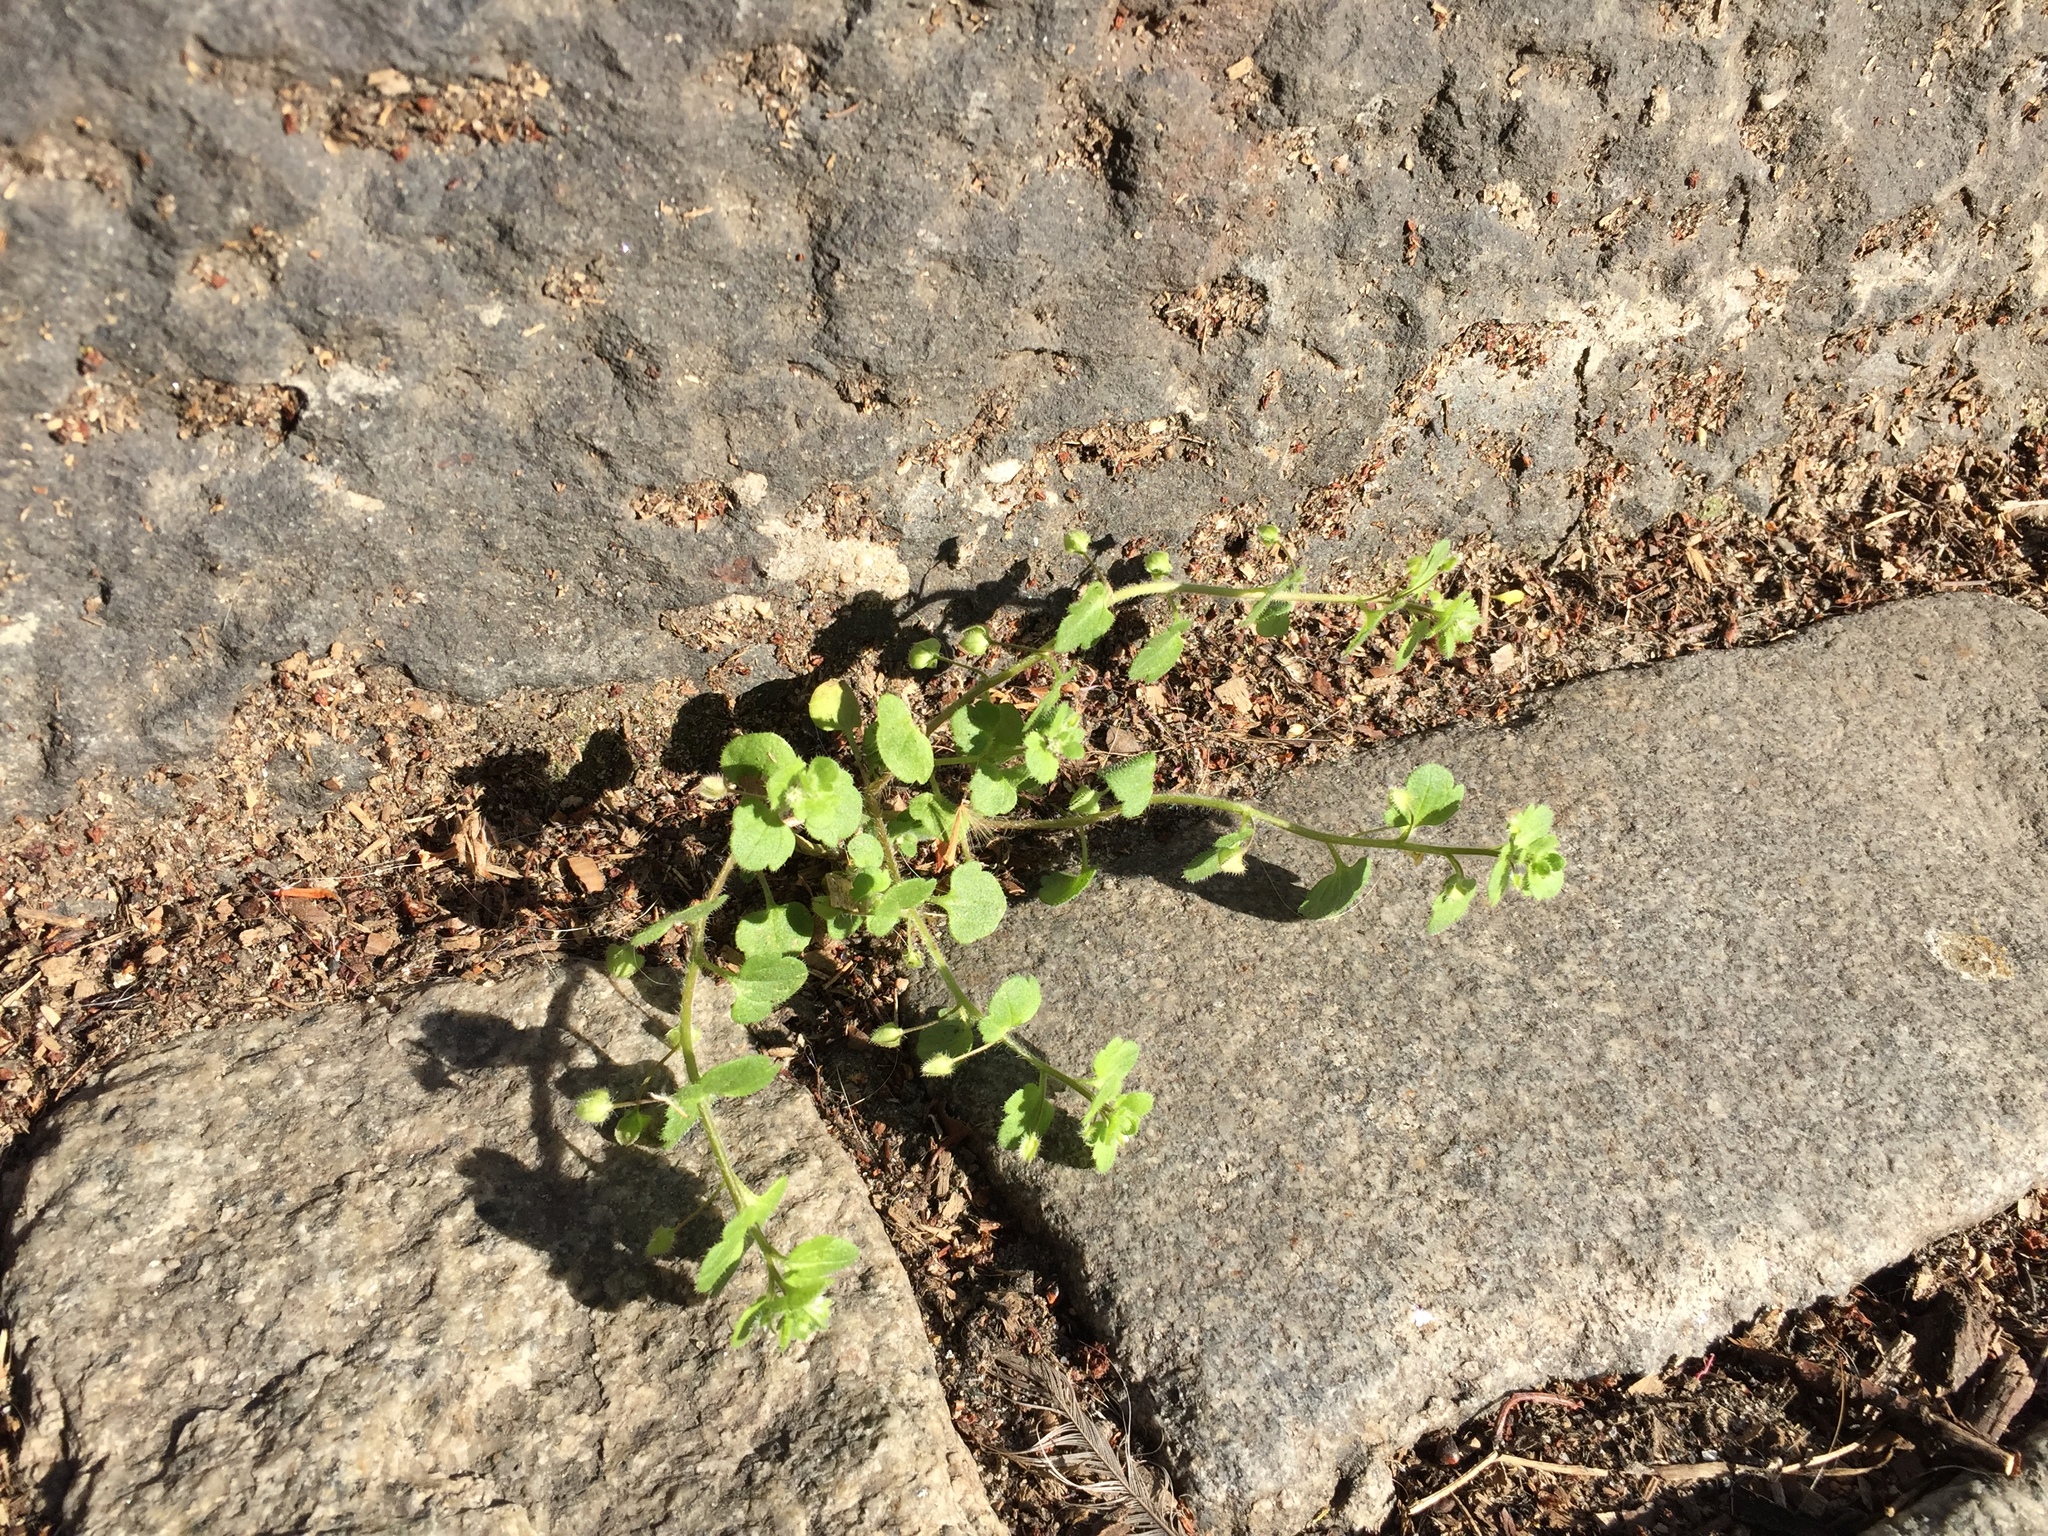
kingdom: Plantae
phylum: Tracheophyta
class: Magnoliopsida
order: Lamiales
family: Plantaginaceae
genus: Veronica
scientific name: Veronica hederifolia
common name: Ivy-leaved speedwell
